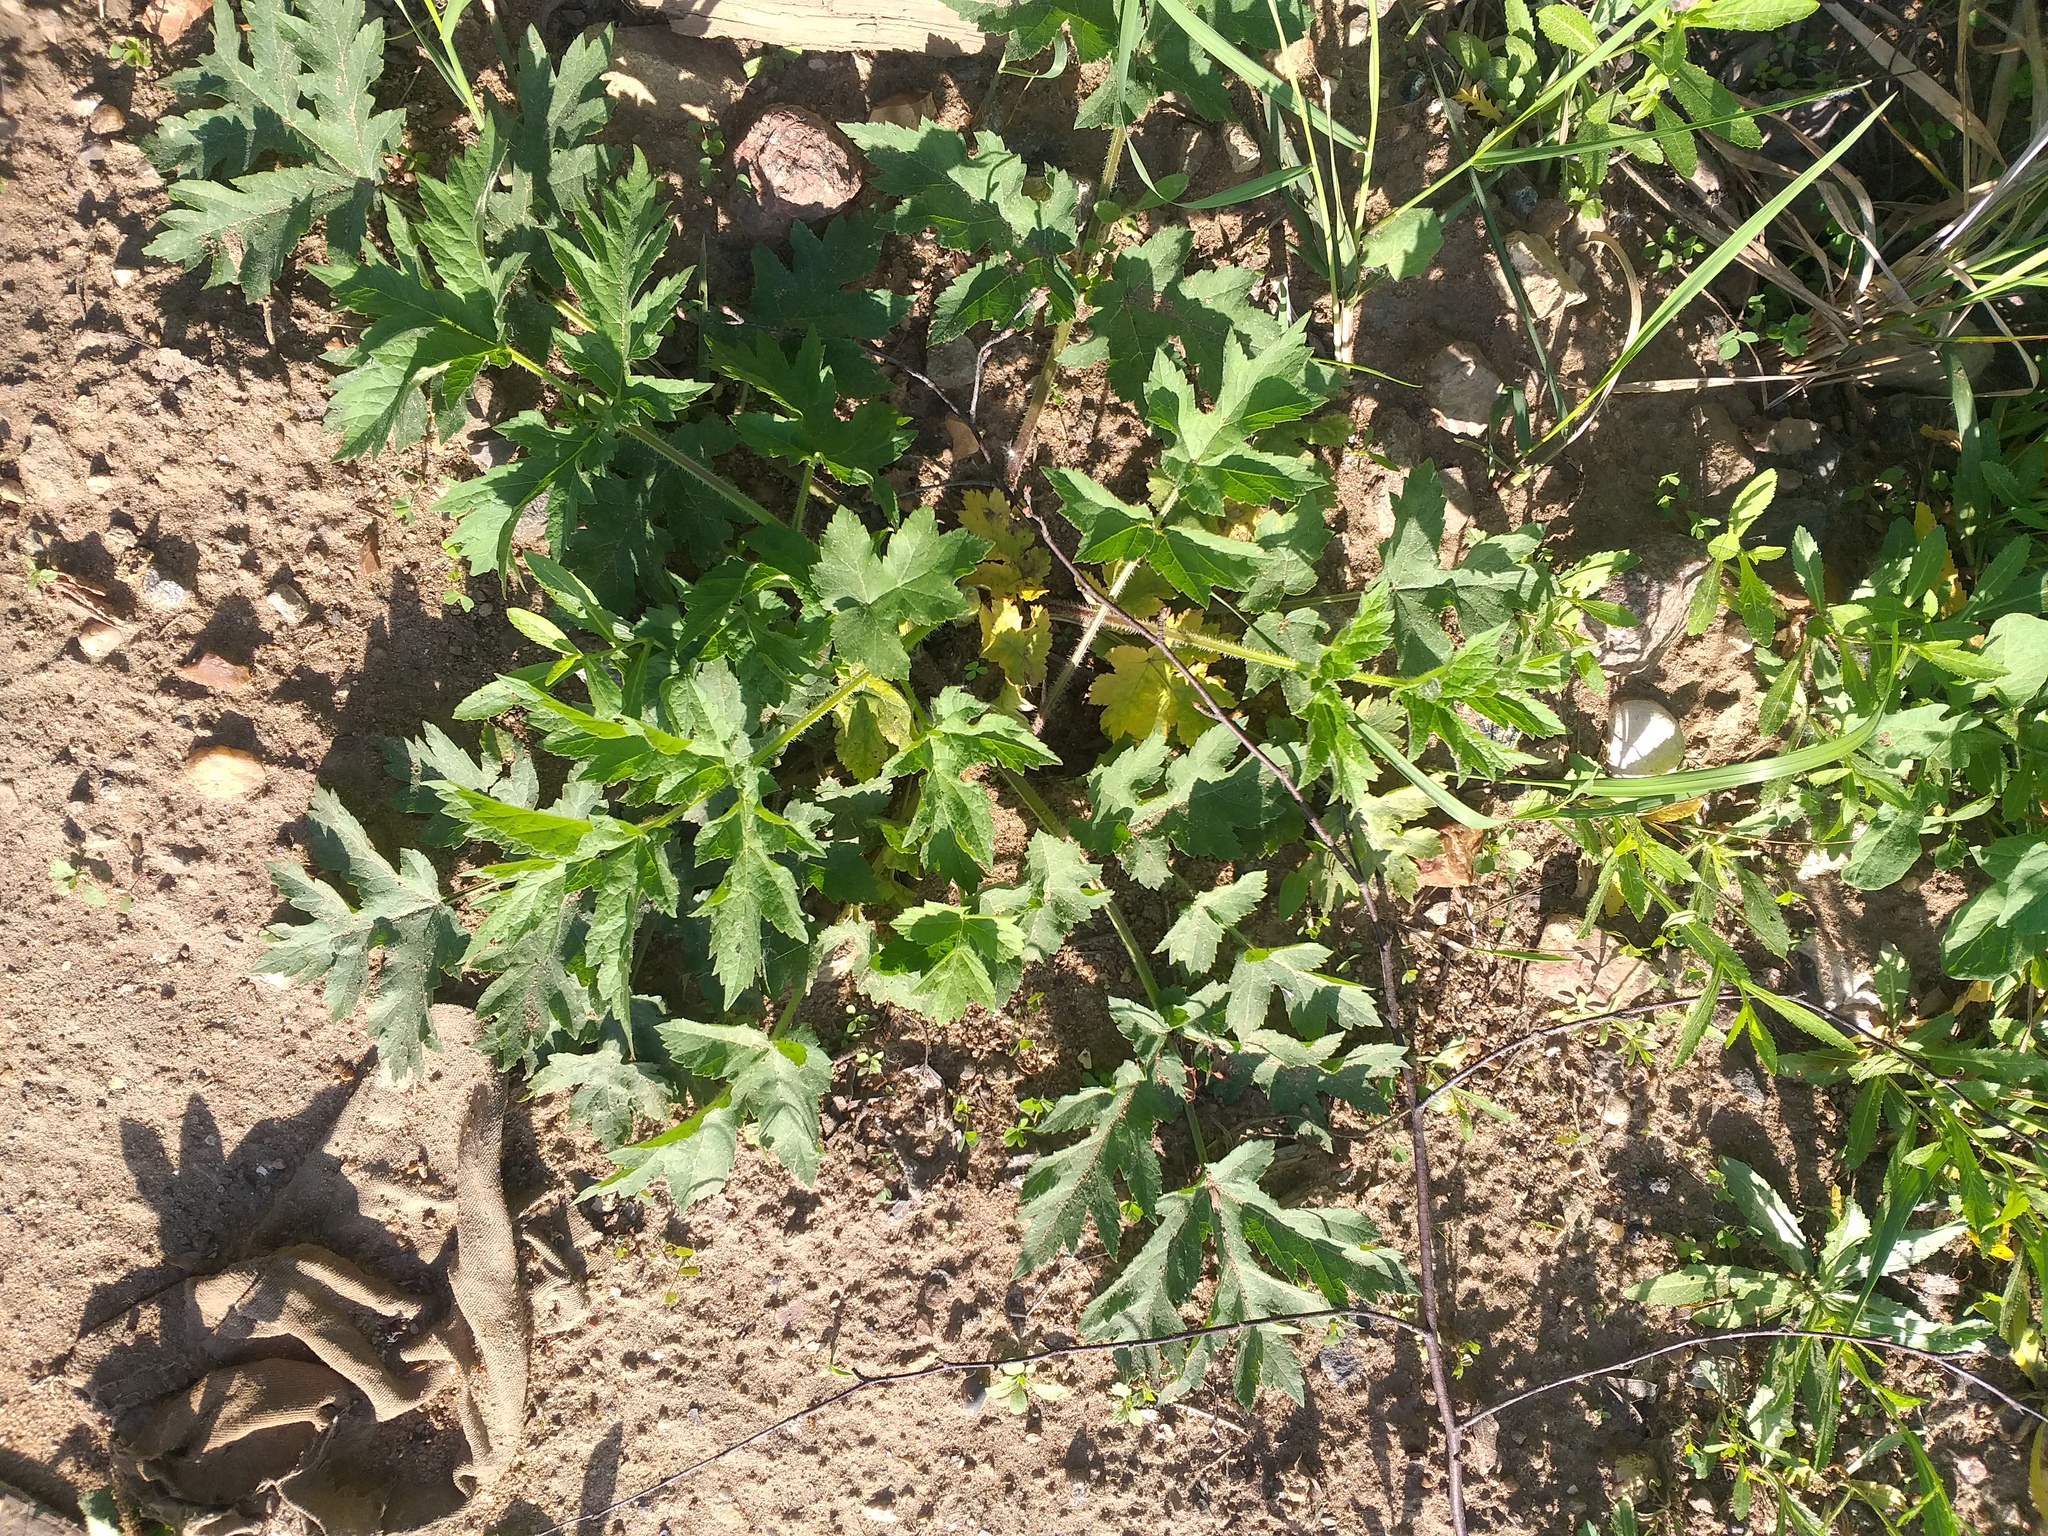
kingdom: Plantae
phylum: Tracheophyta
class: Magnoliopsida
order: Apiales
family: Apiaceae
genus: Heracleum
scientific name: Heracleum sphondylium
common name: Hogweed
